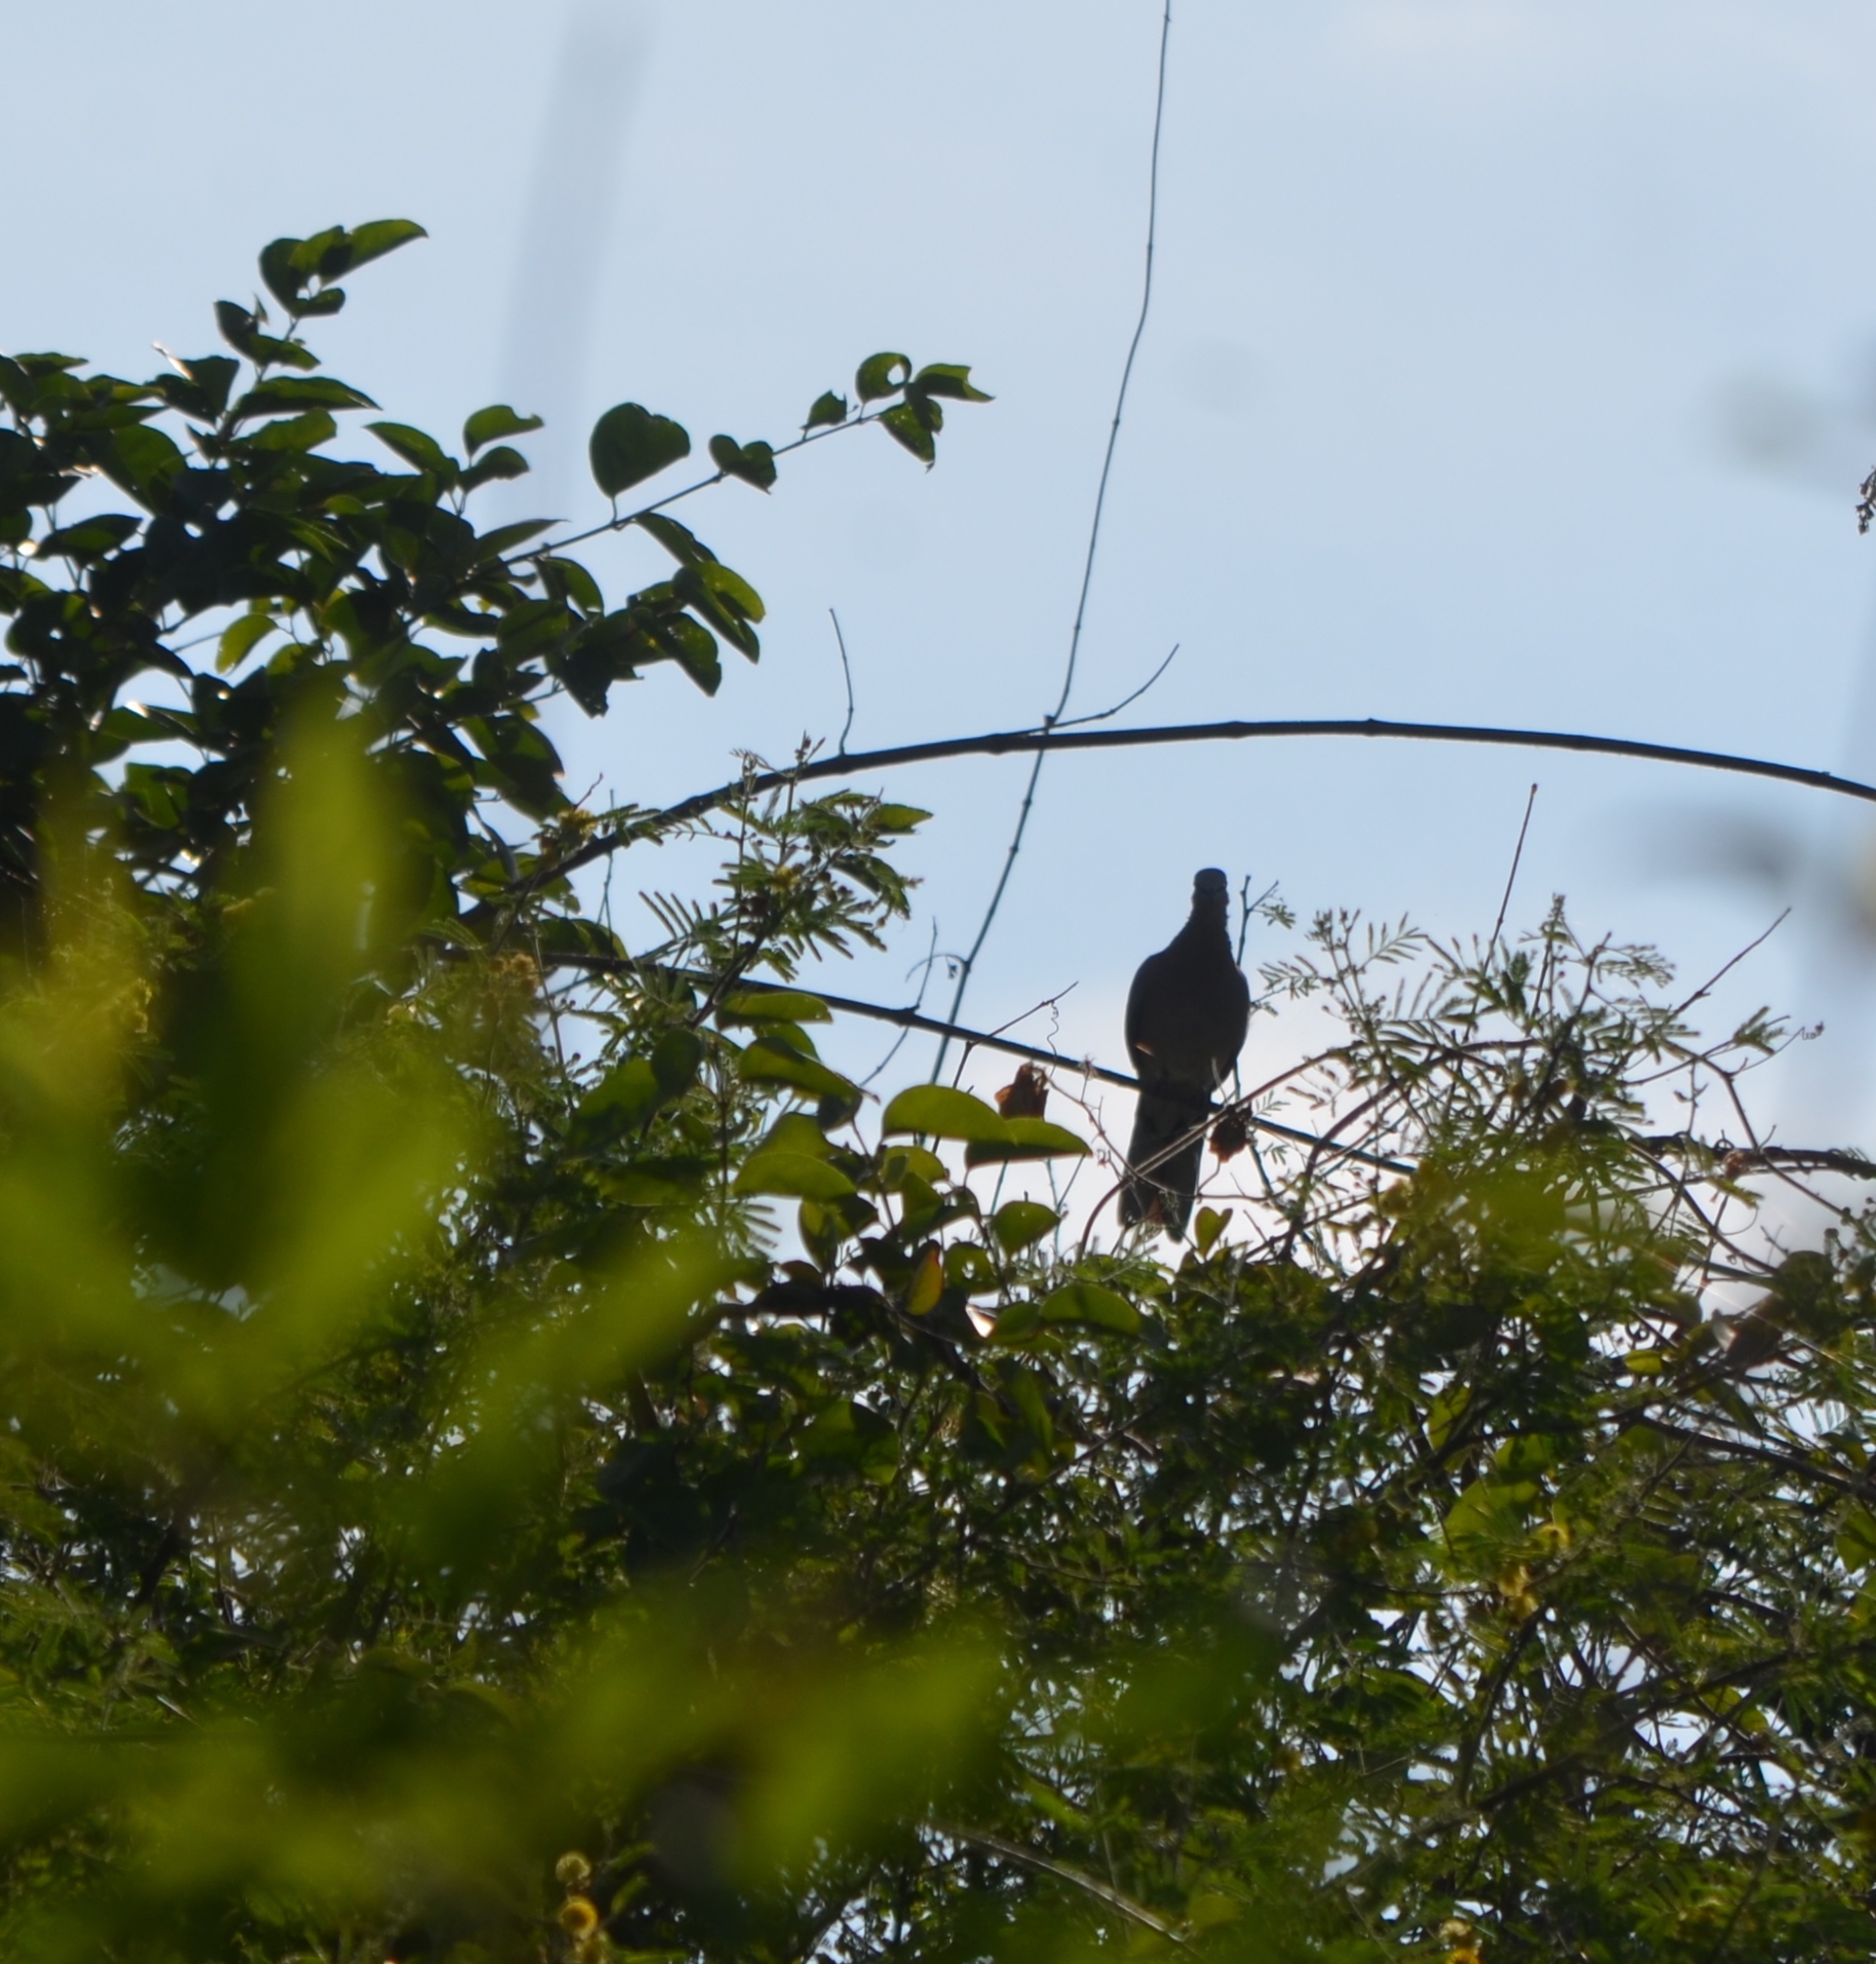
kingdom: Animalia
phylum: Chordata
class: Aves
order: Columbiformes
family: Columbidae
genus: Spilopelia
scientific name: Spilopelia chinensis
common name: Spotted dove
